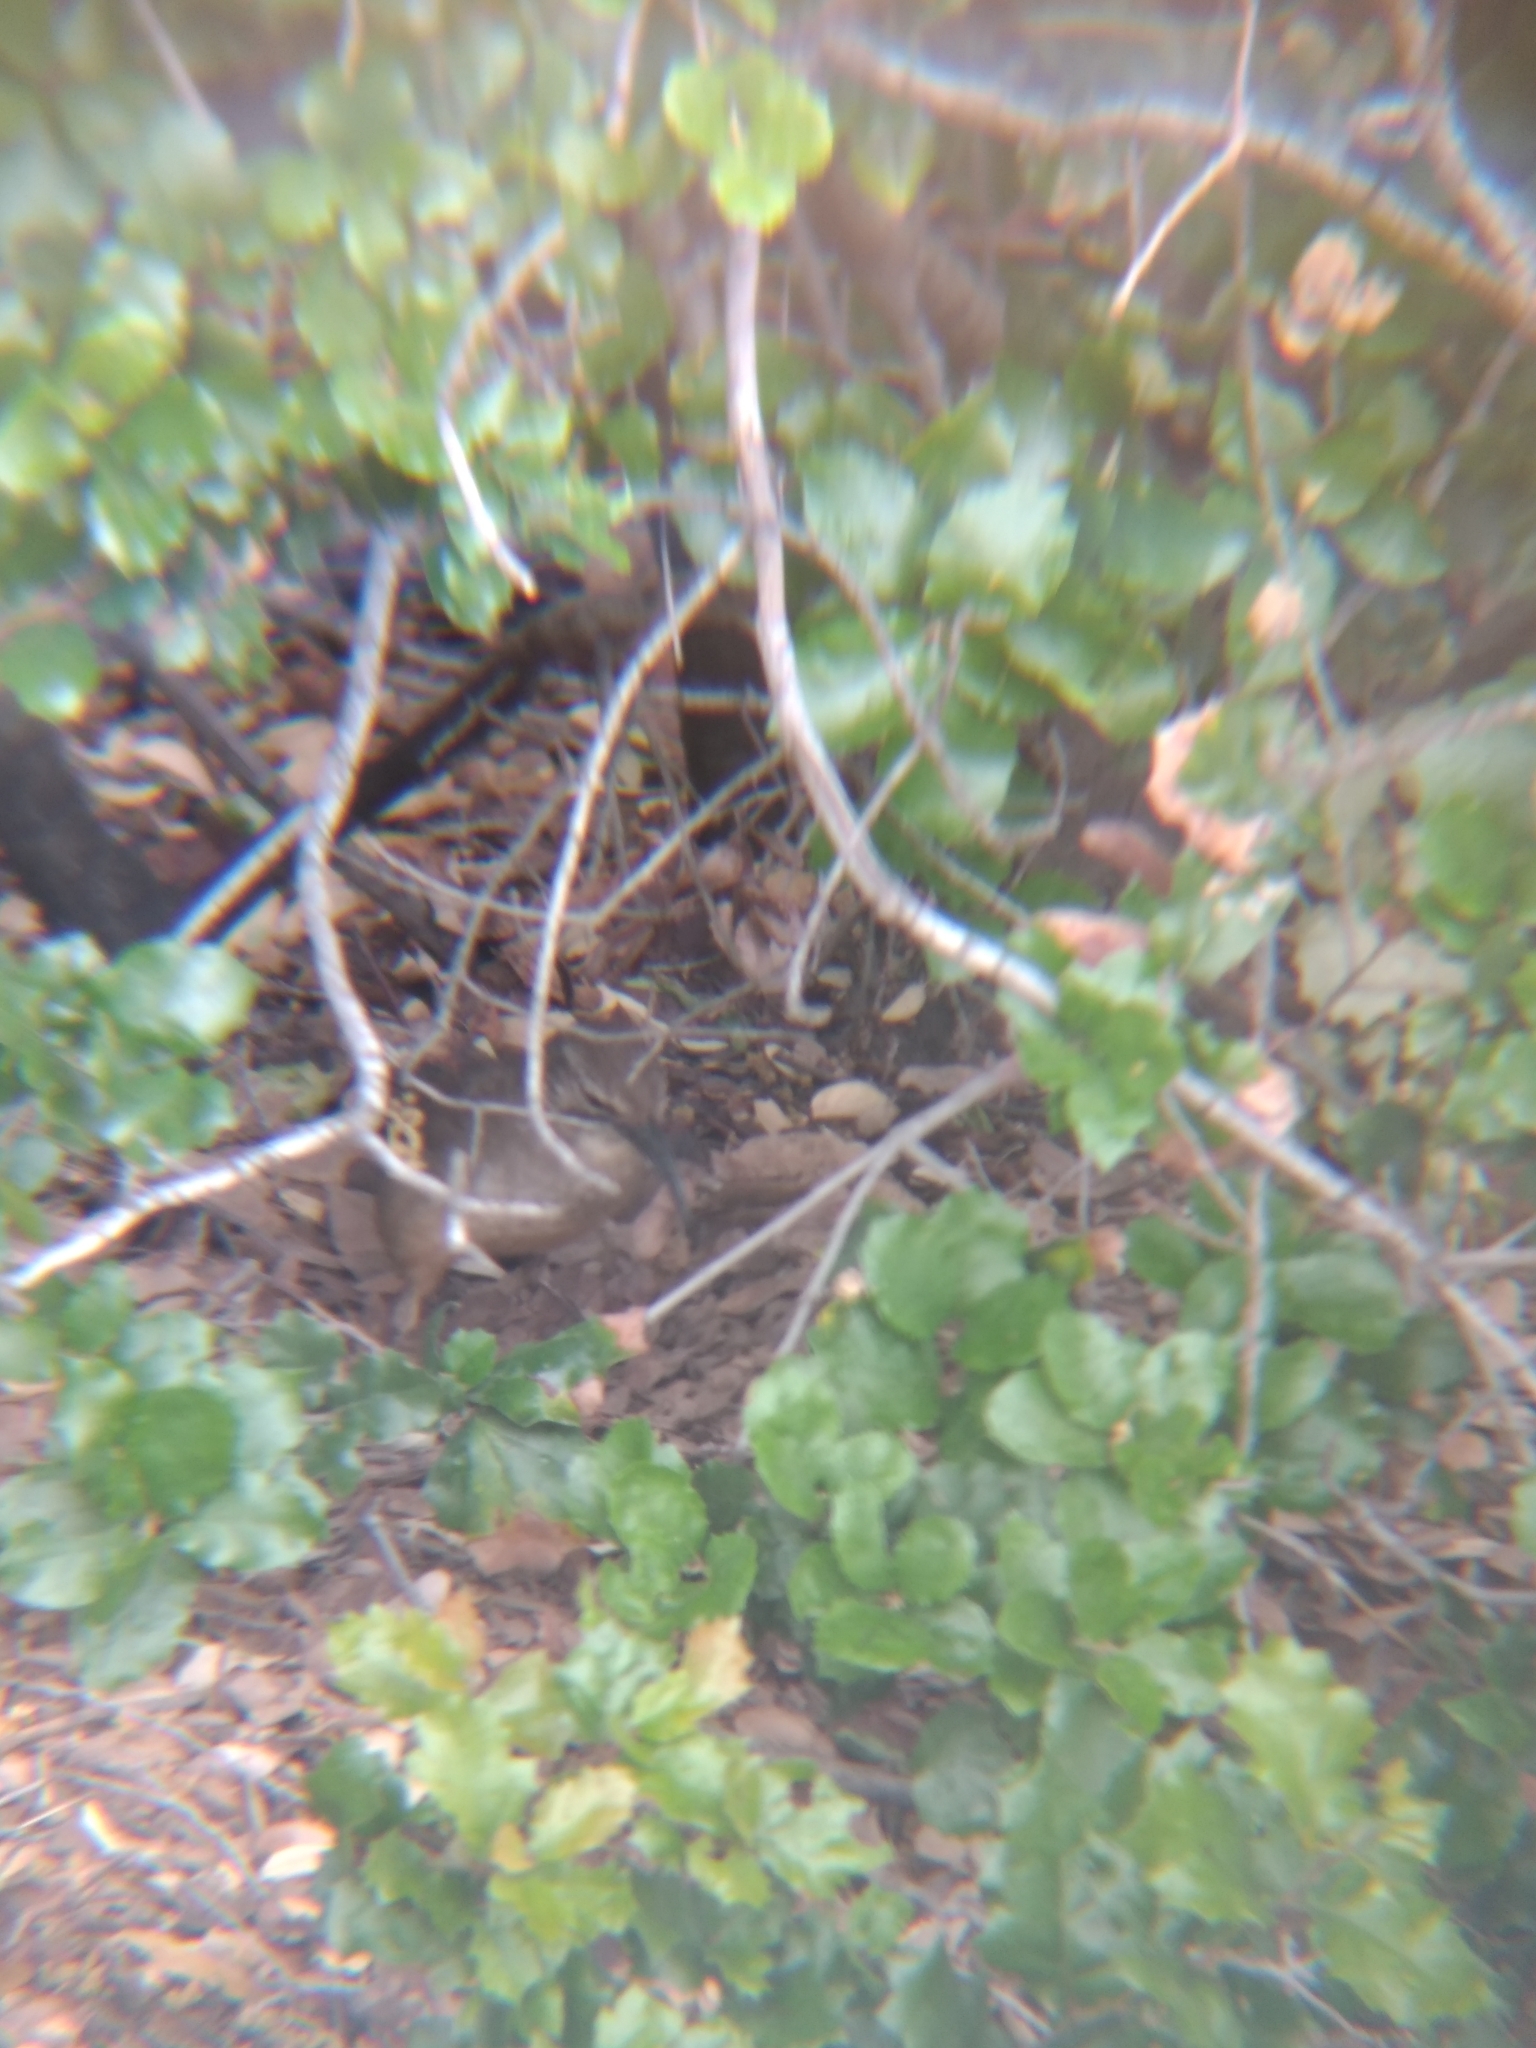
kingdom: Animalia
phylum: Chordata
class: Aves
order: Passeriformes
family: Mimidae
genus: Toxostoma
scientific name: Toxostoma redivivum
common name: California thrasher
